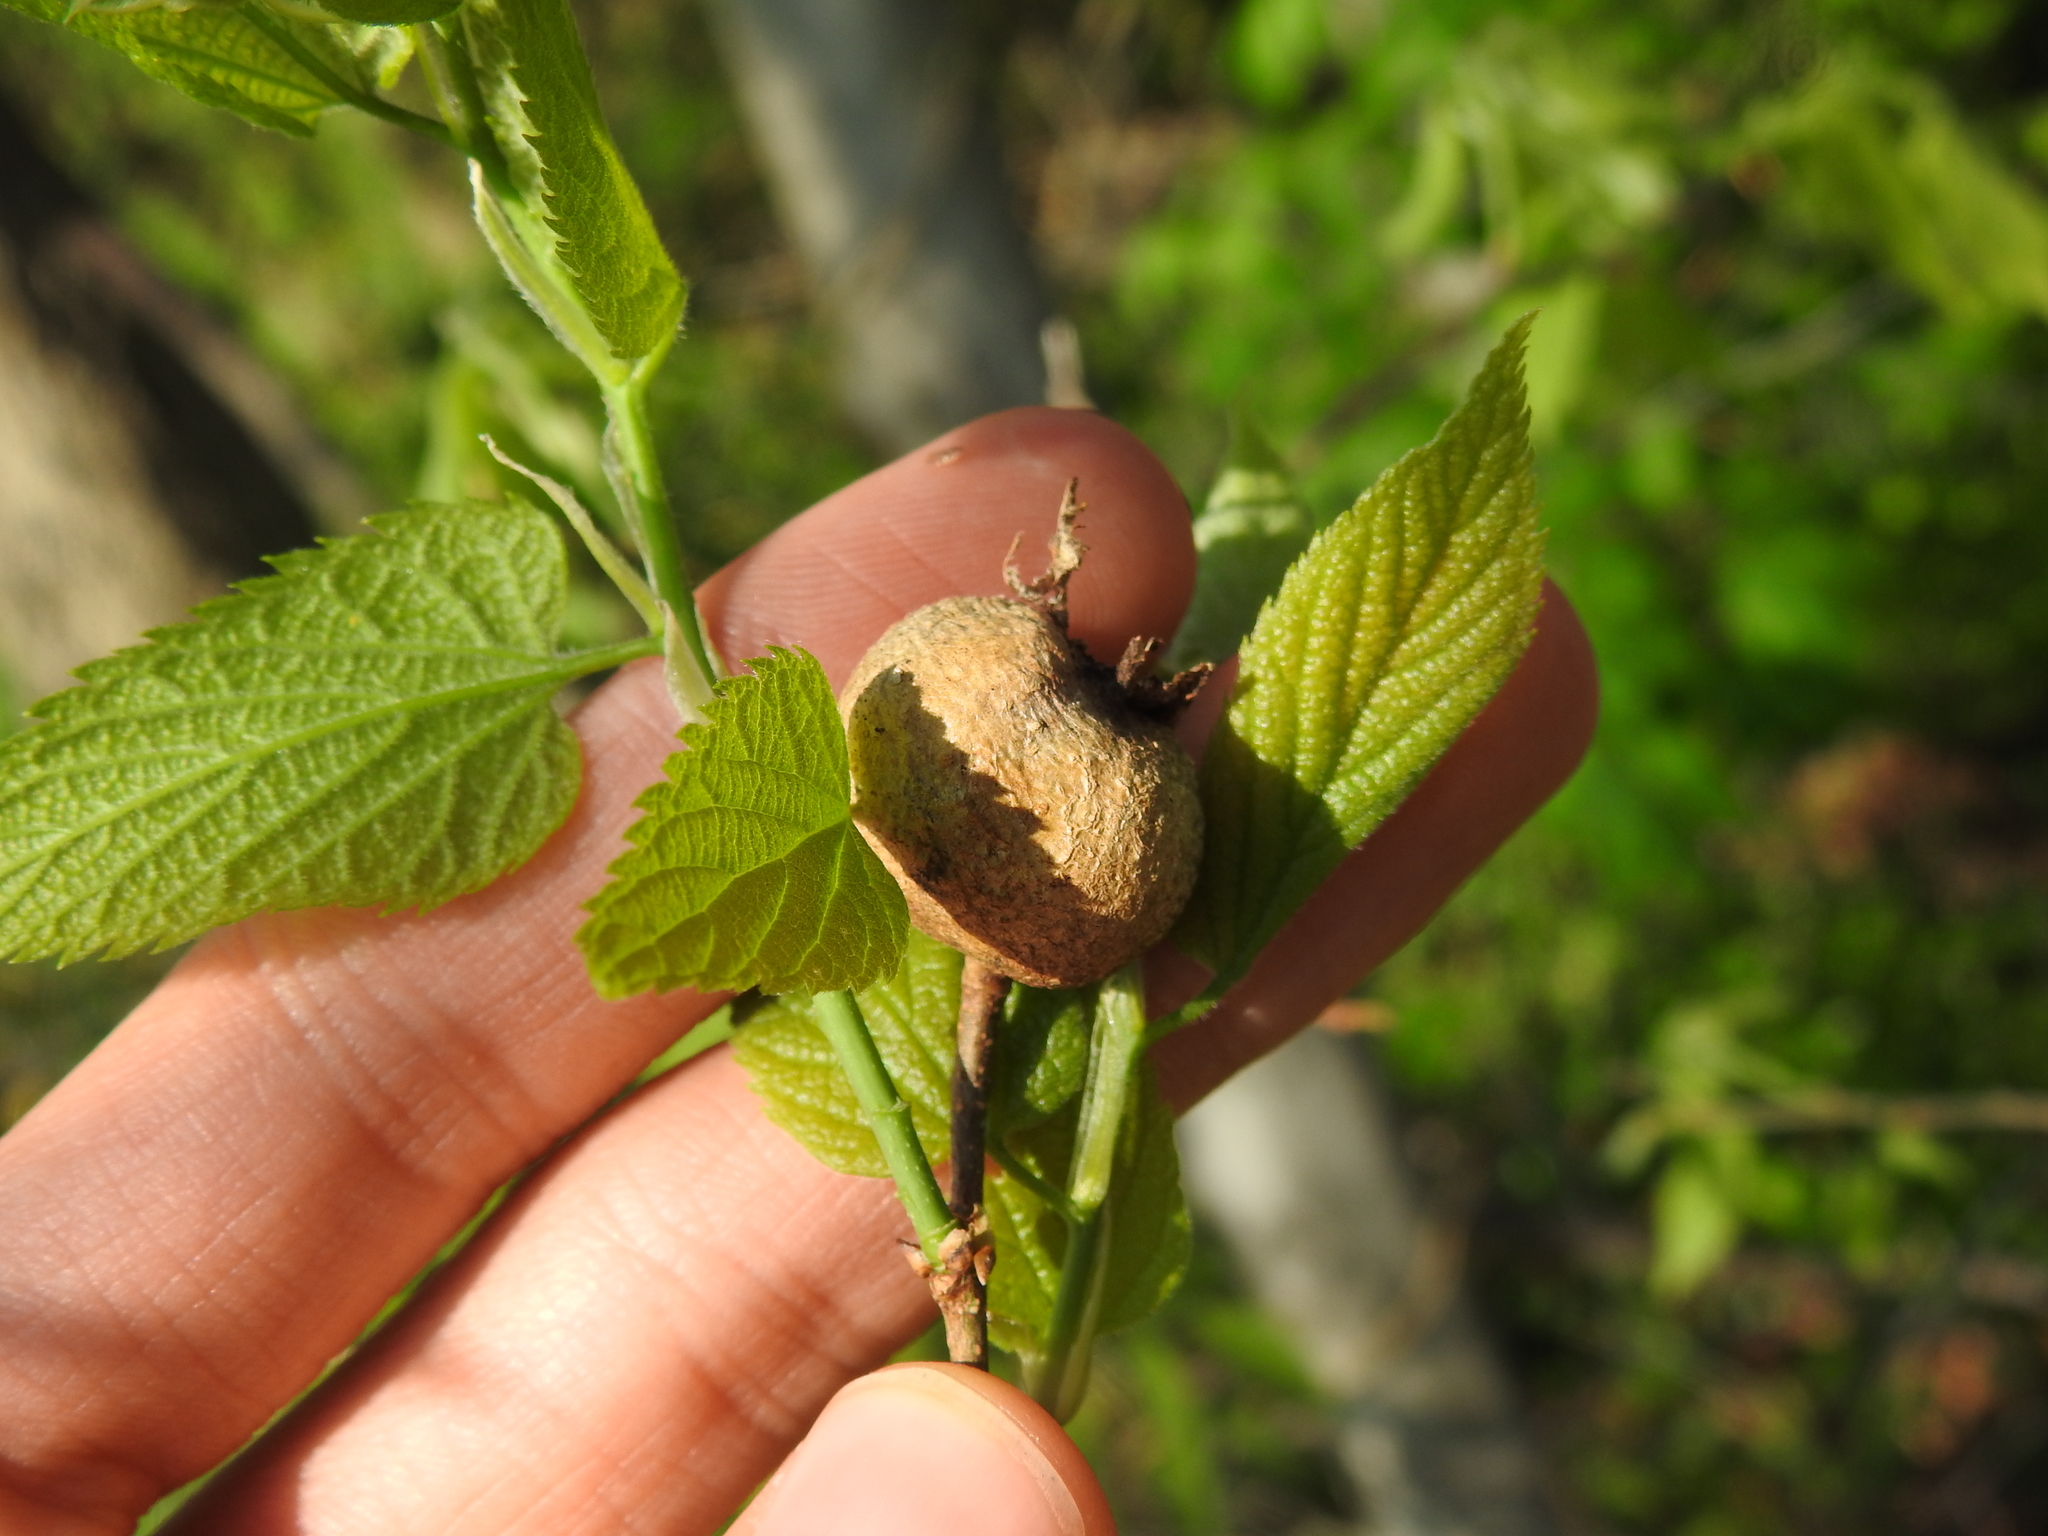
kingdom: Animalia
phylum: Arthropoda
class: Insecta
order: Hemiptera
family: Aphalaridae
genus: Pachypsylla
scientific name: Pachypsylla venusta
